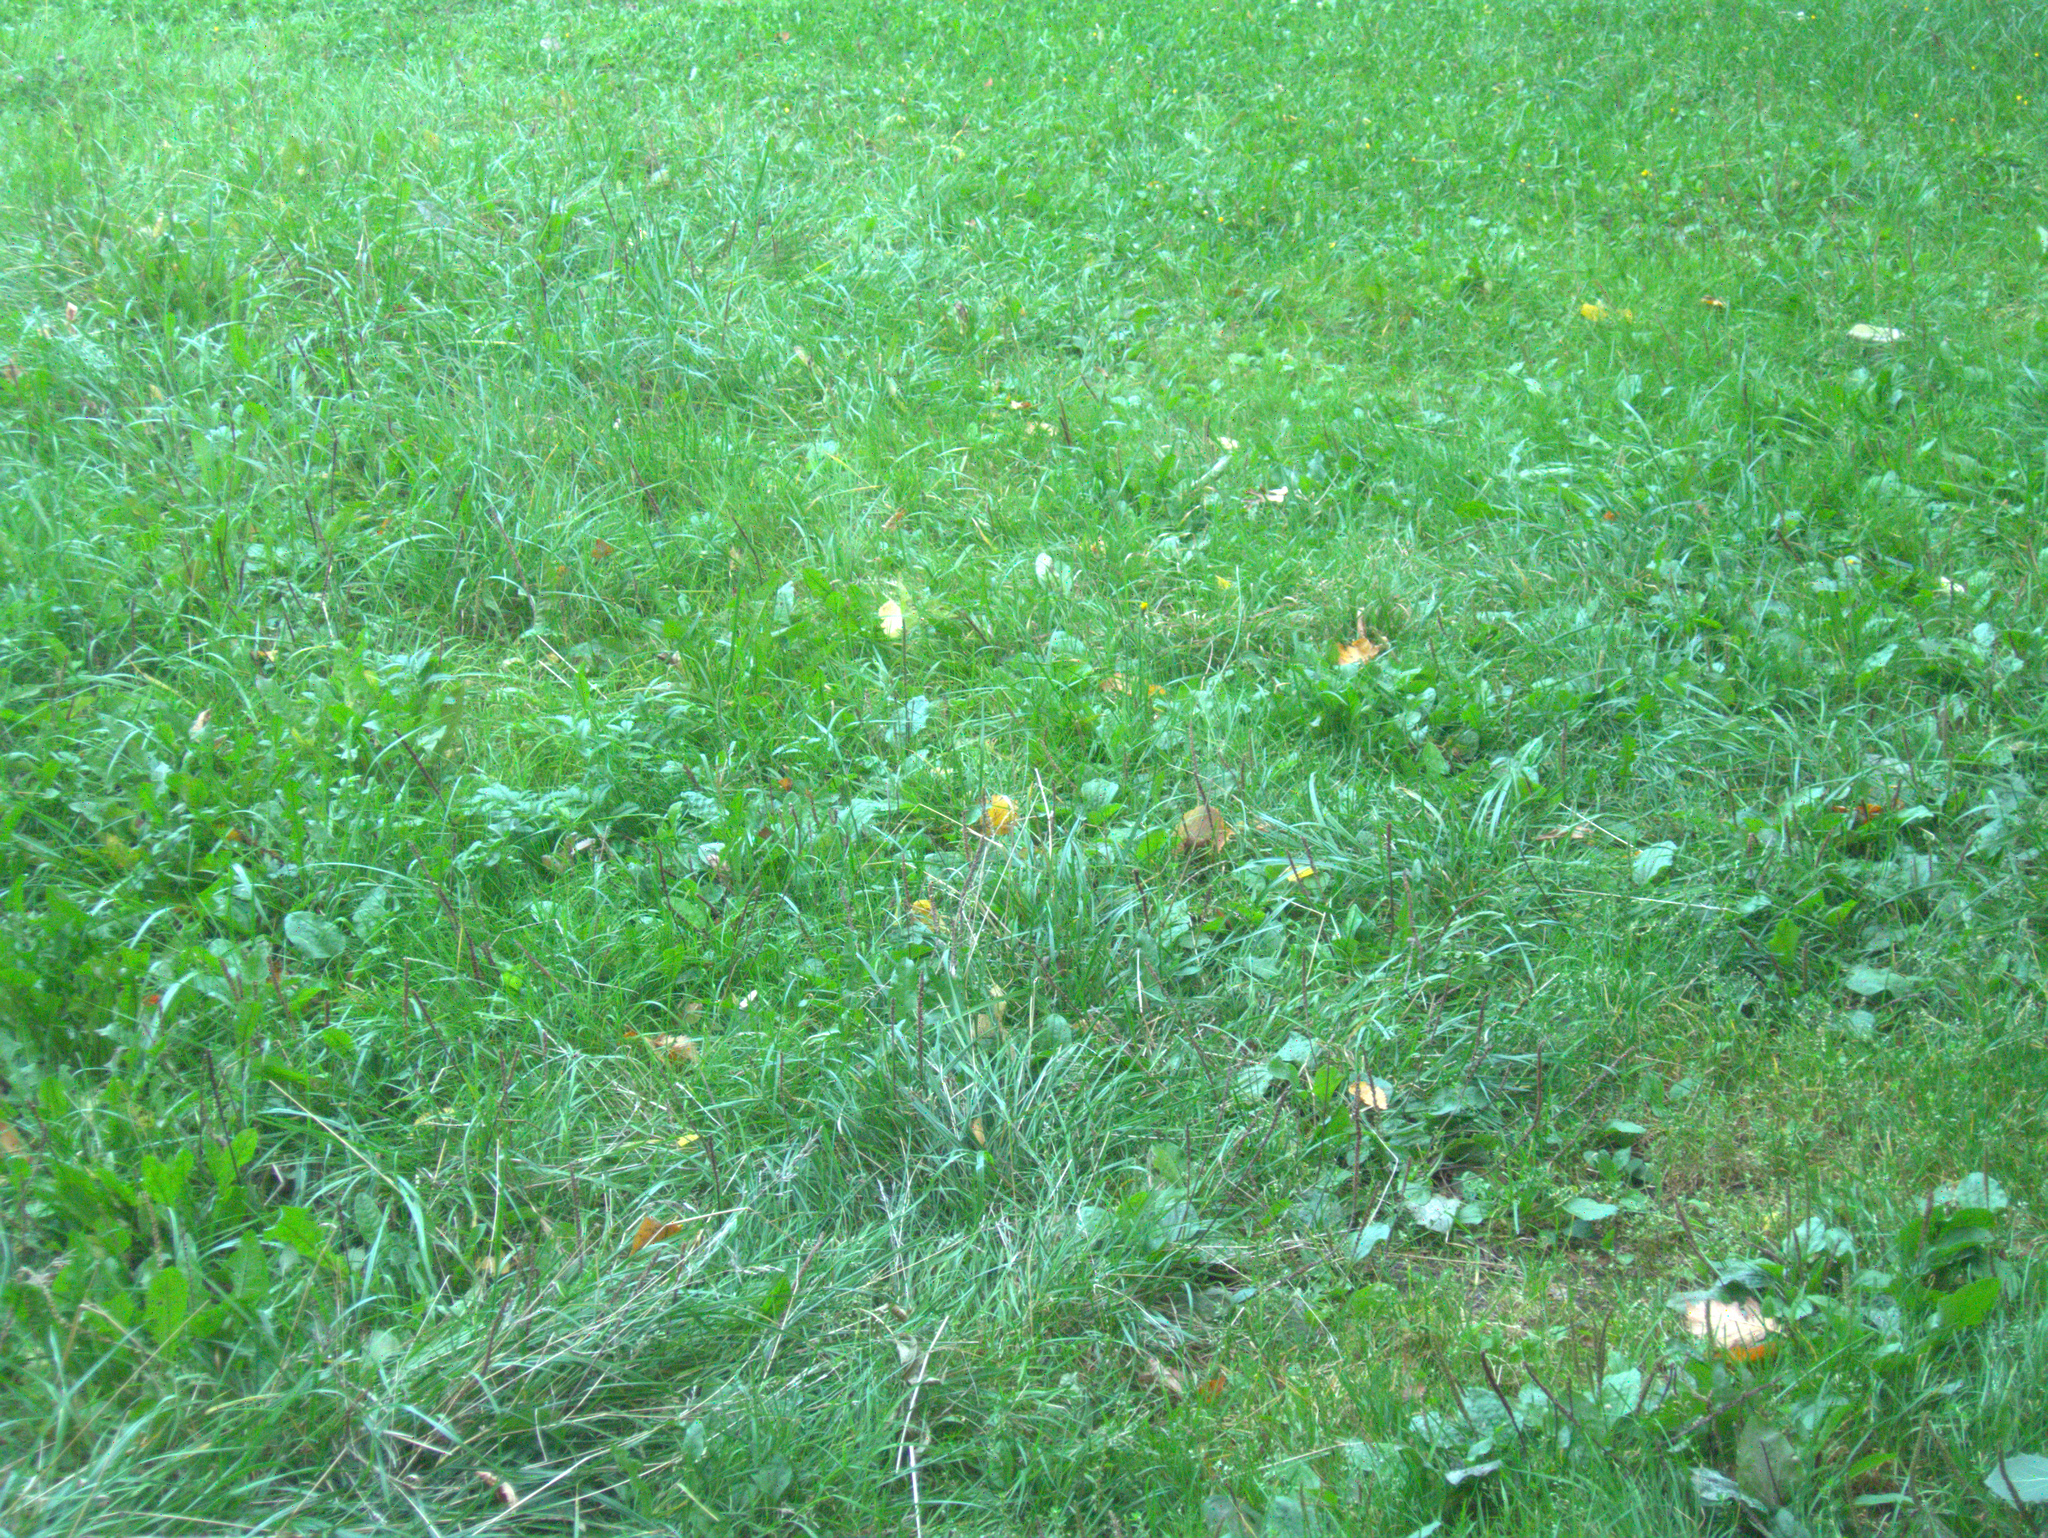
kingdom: Plantae
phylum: Tracheophyta
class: Magnoliopsida
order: Lamiales
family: Plantaginaceae
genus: Plantago
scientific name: Plantago major
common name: Common plantain
